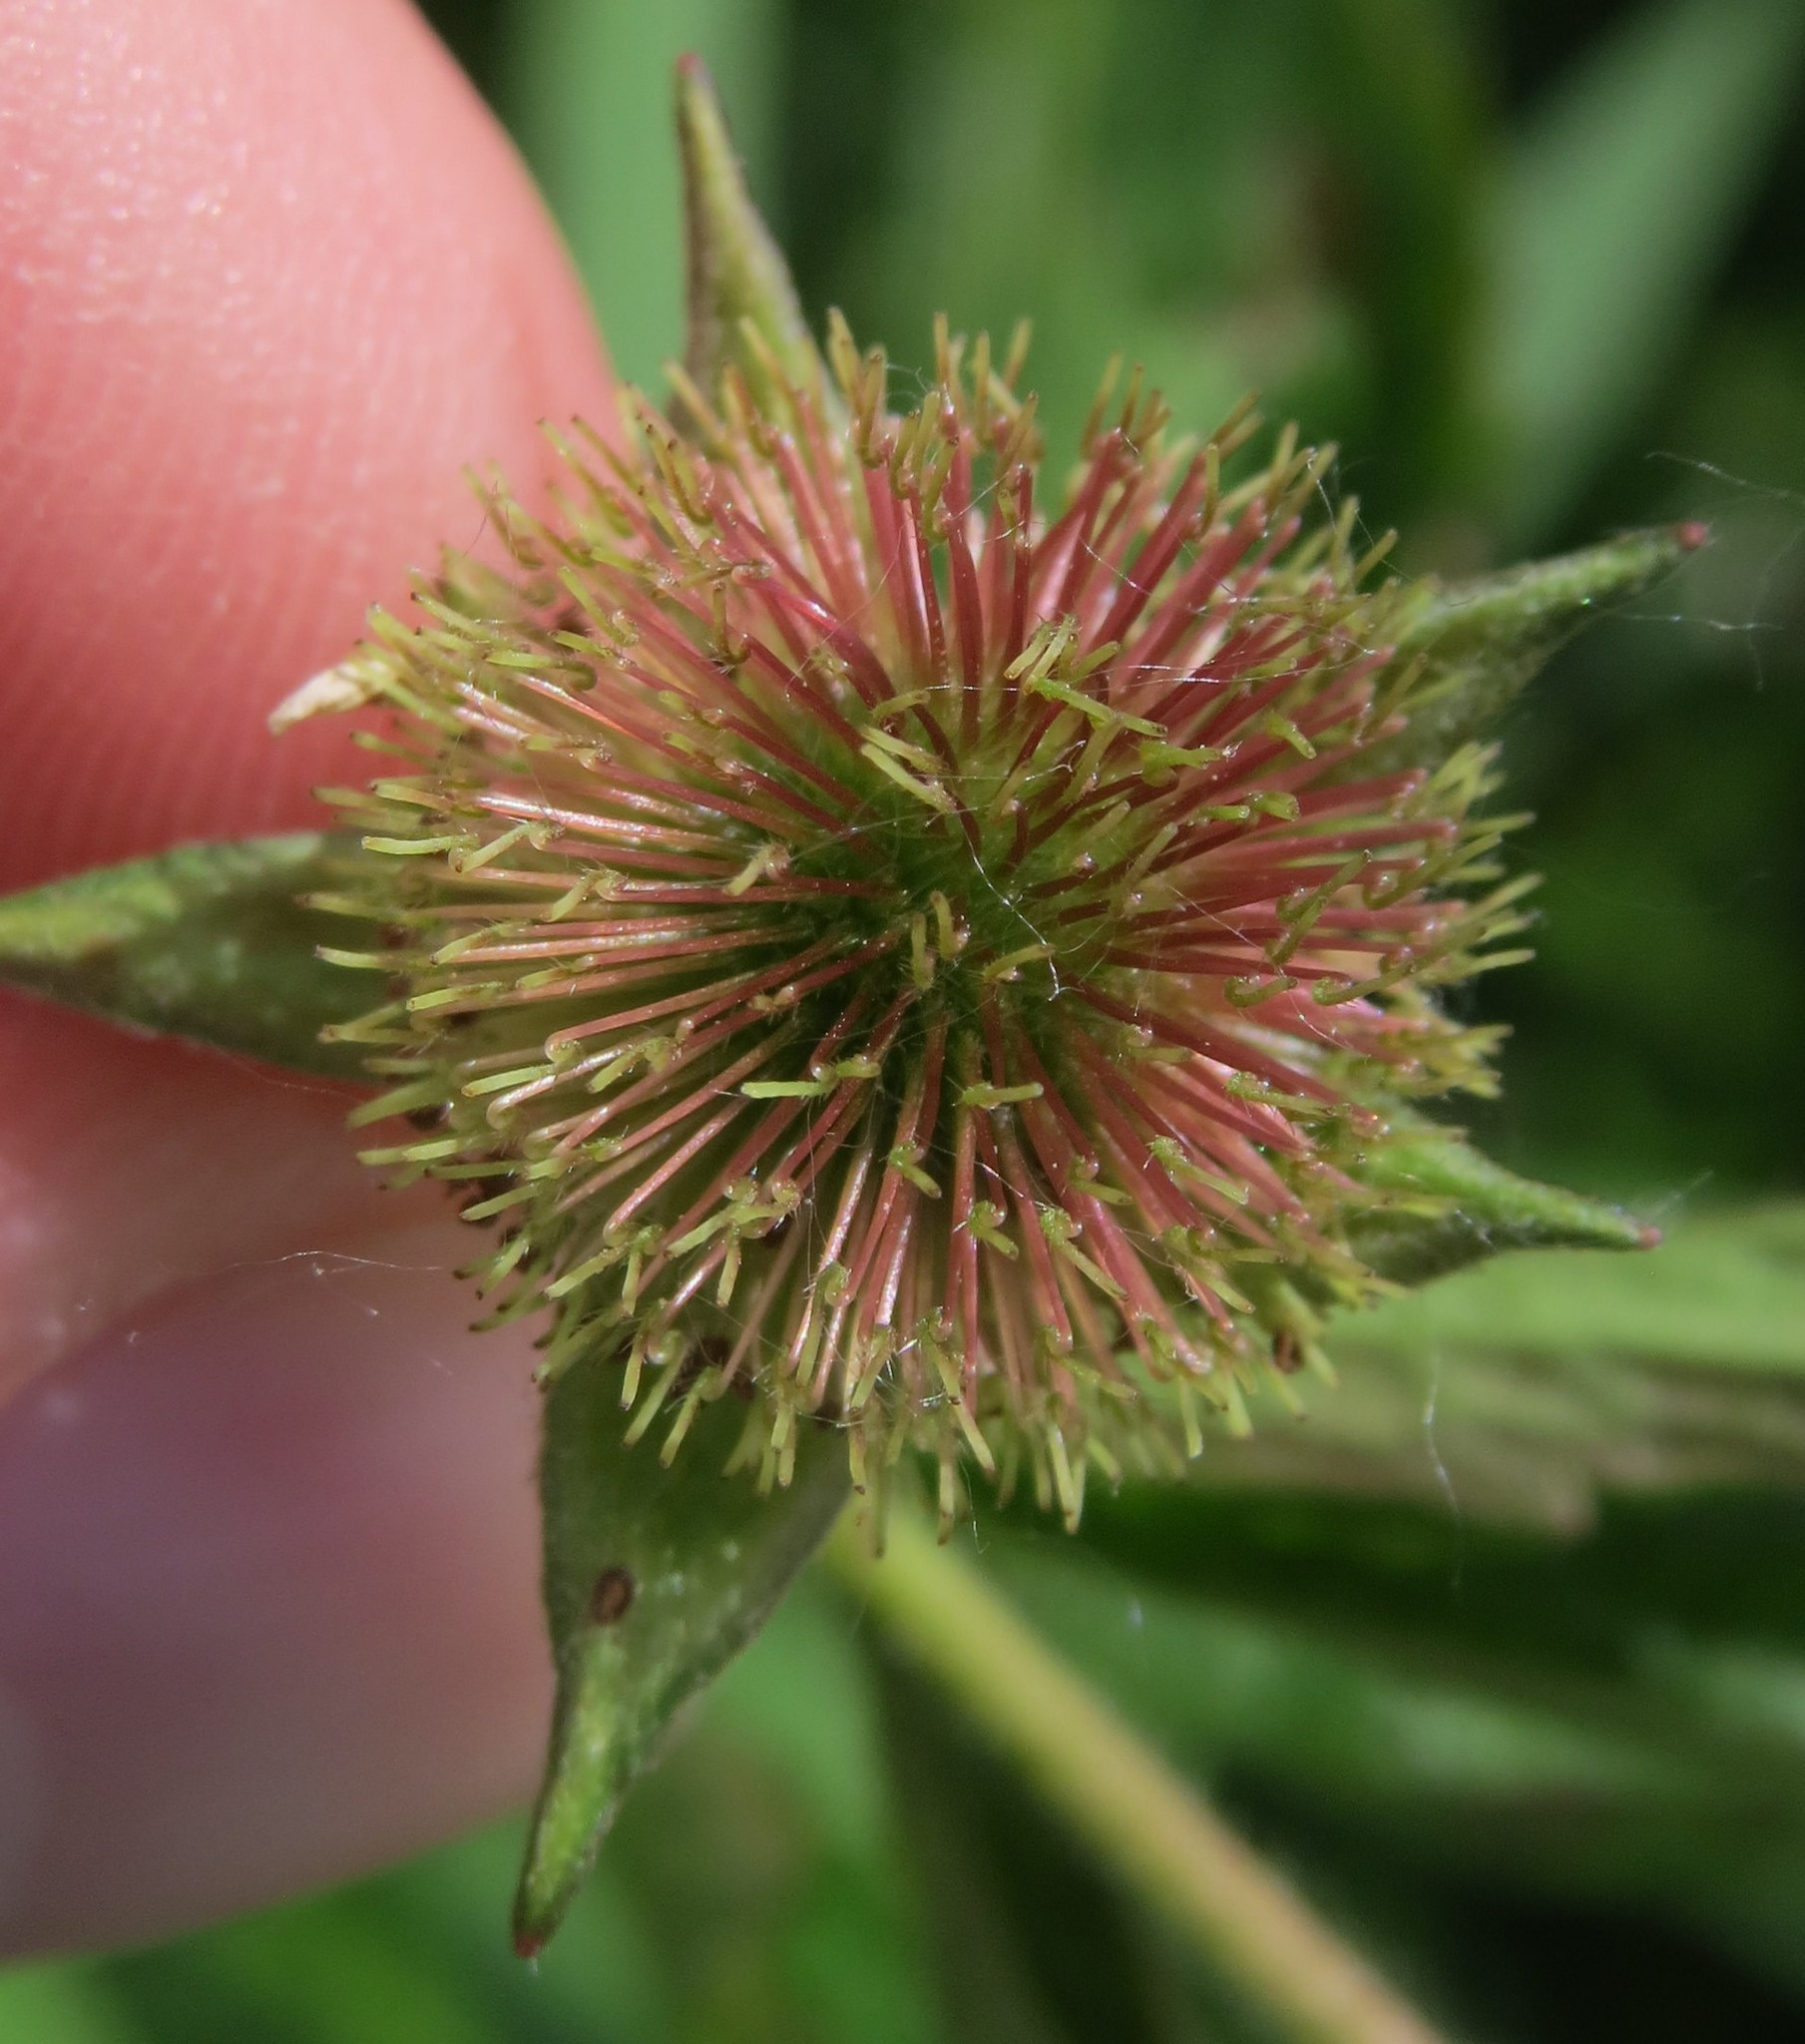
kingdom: Plantae
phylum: Tracheophyta
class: Magnoliopsida
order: Rosales
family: Rosaceae
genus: Geum
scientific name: Geum aleppicum
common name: Yellow avens
